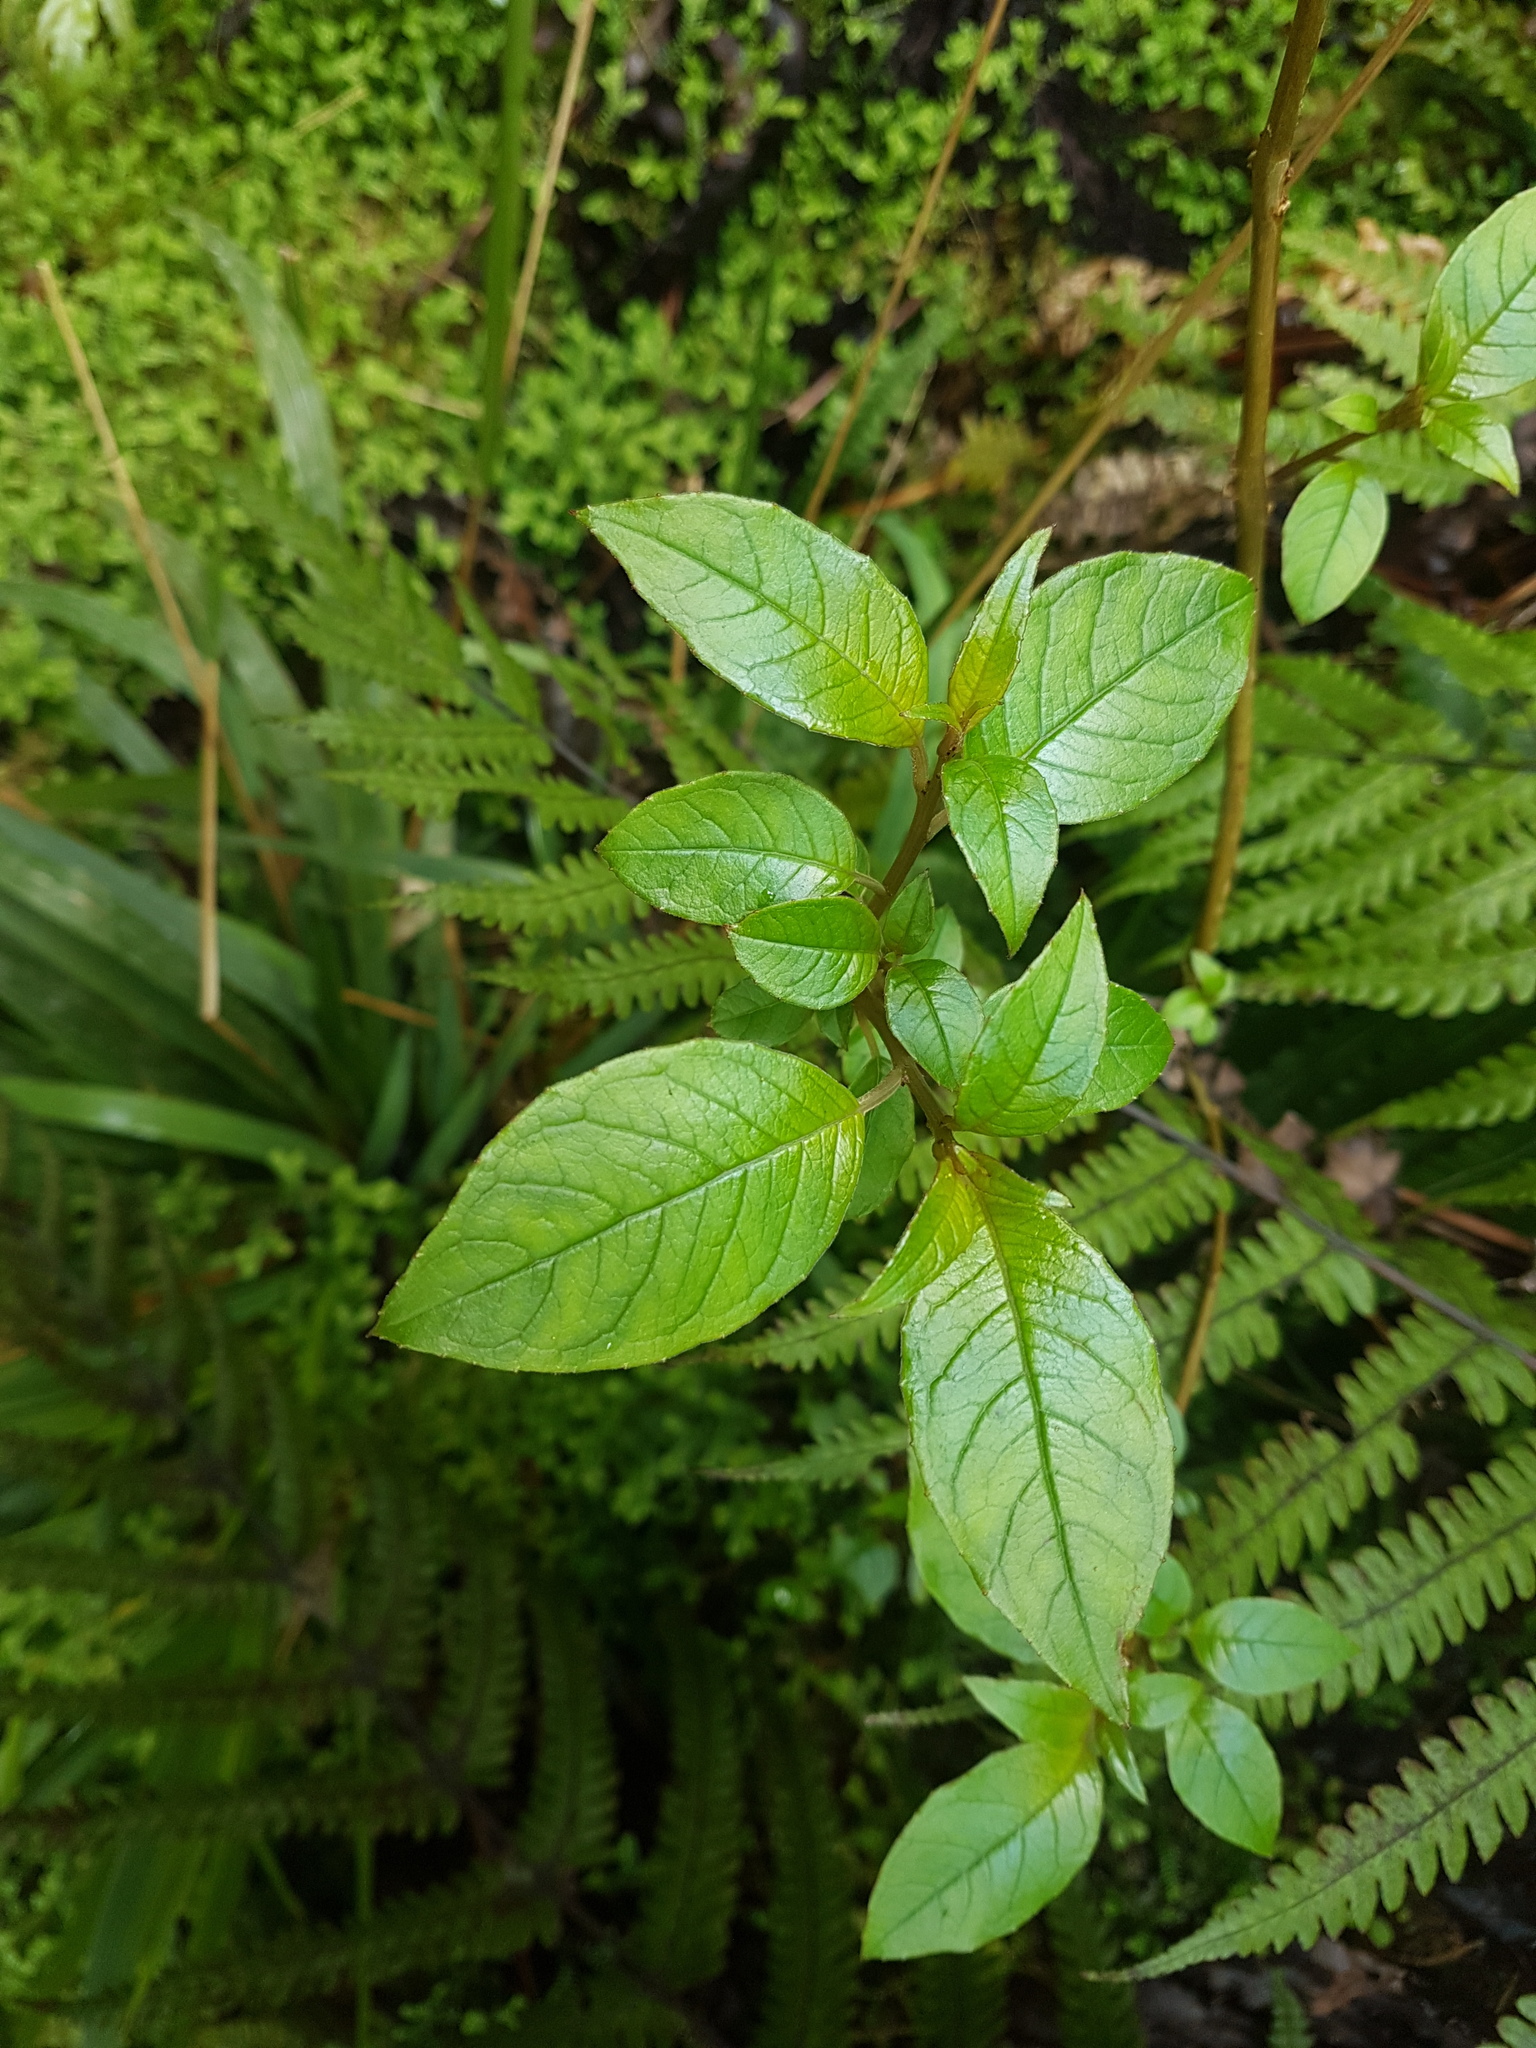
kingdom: Plantae
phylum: Tracheophyta
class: Magnoliopsida
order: Myrtales
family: Onagraceae
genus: Fuchsia
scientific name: Fuchsia excorticata
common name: Tree fuchsia
